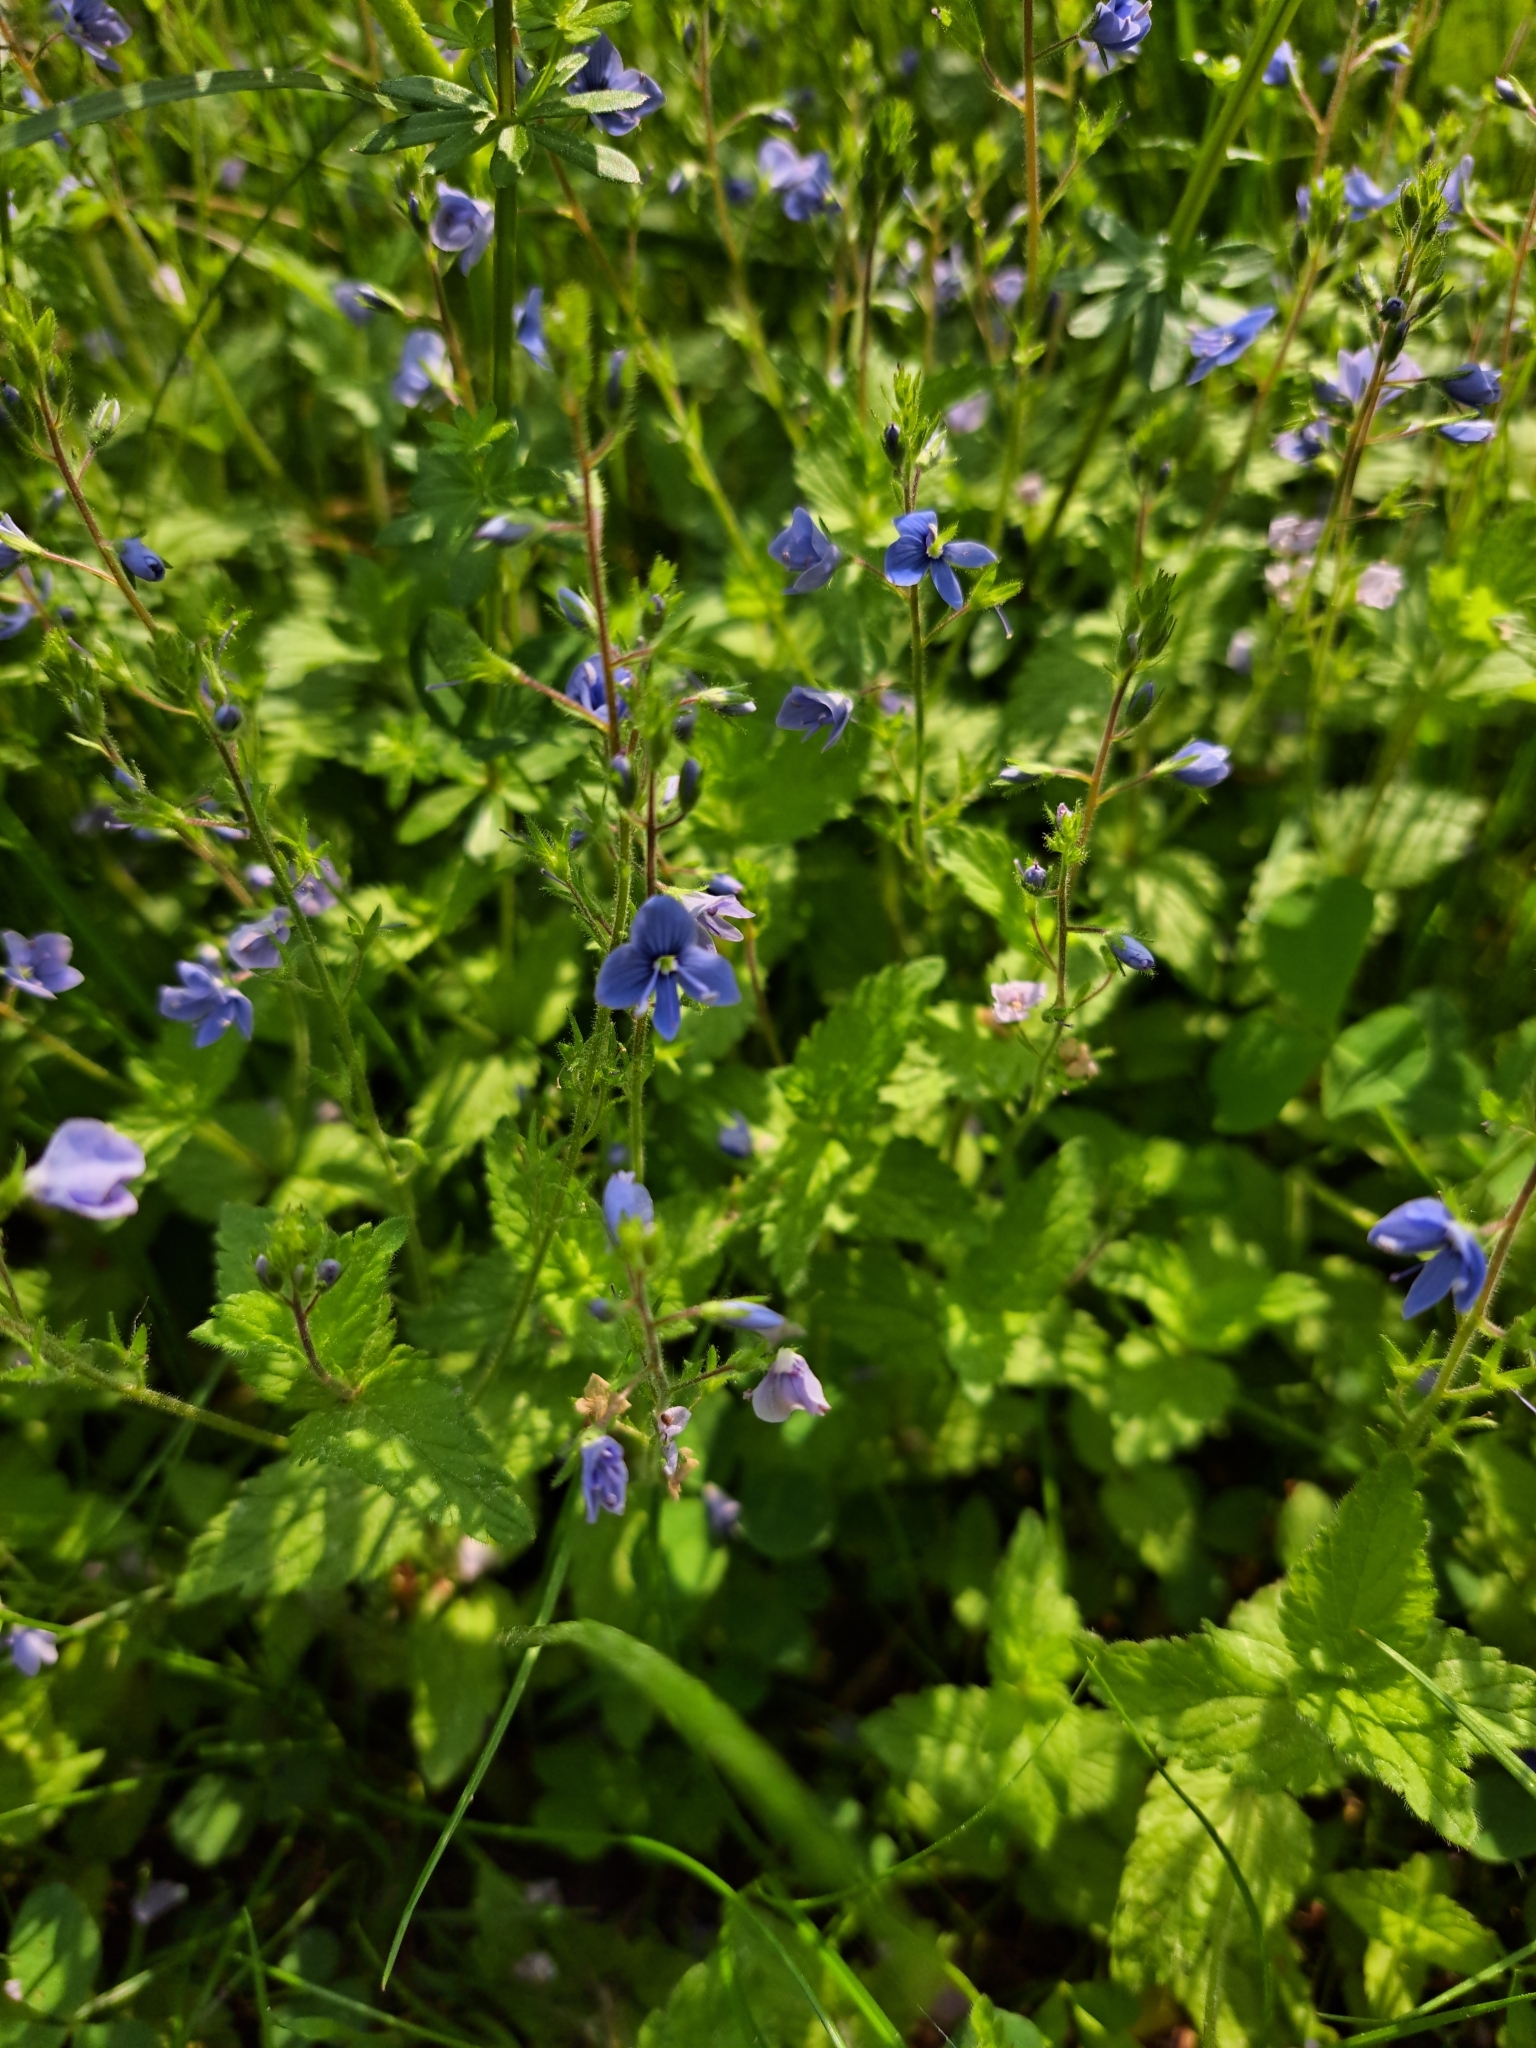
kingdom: Plantae
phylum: Tracheophyta
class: Magnoliopsida
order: Lamiales
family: Plantaginaceae
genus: Veronica
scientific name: Veronica chamaedrys
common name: Germander speedwell
